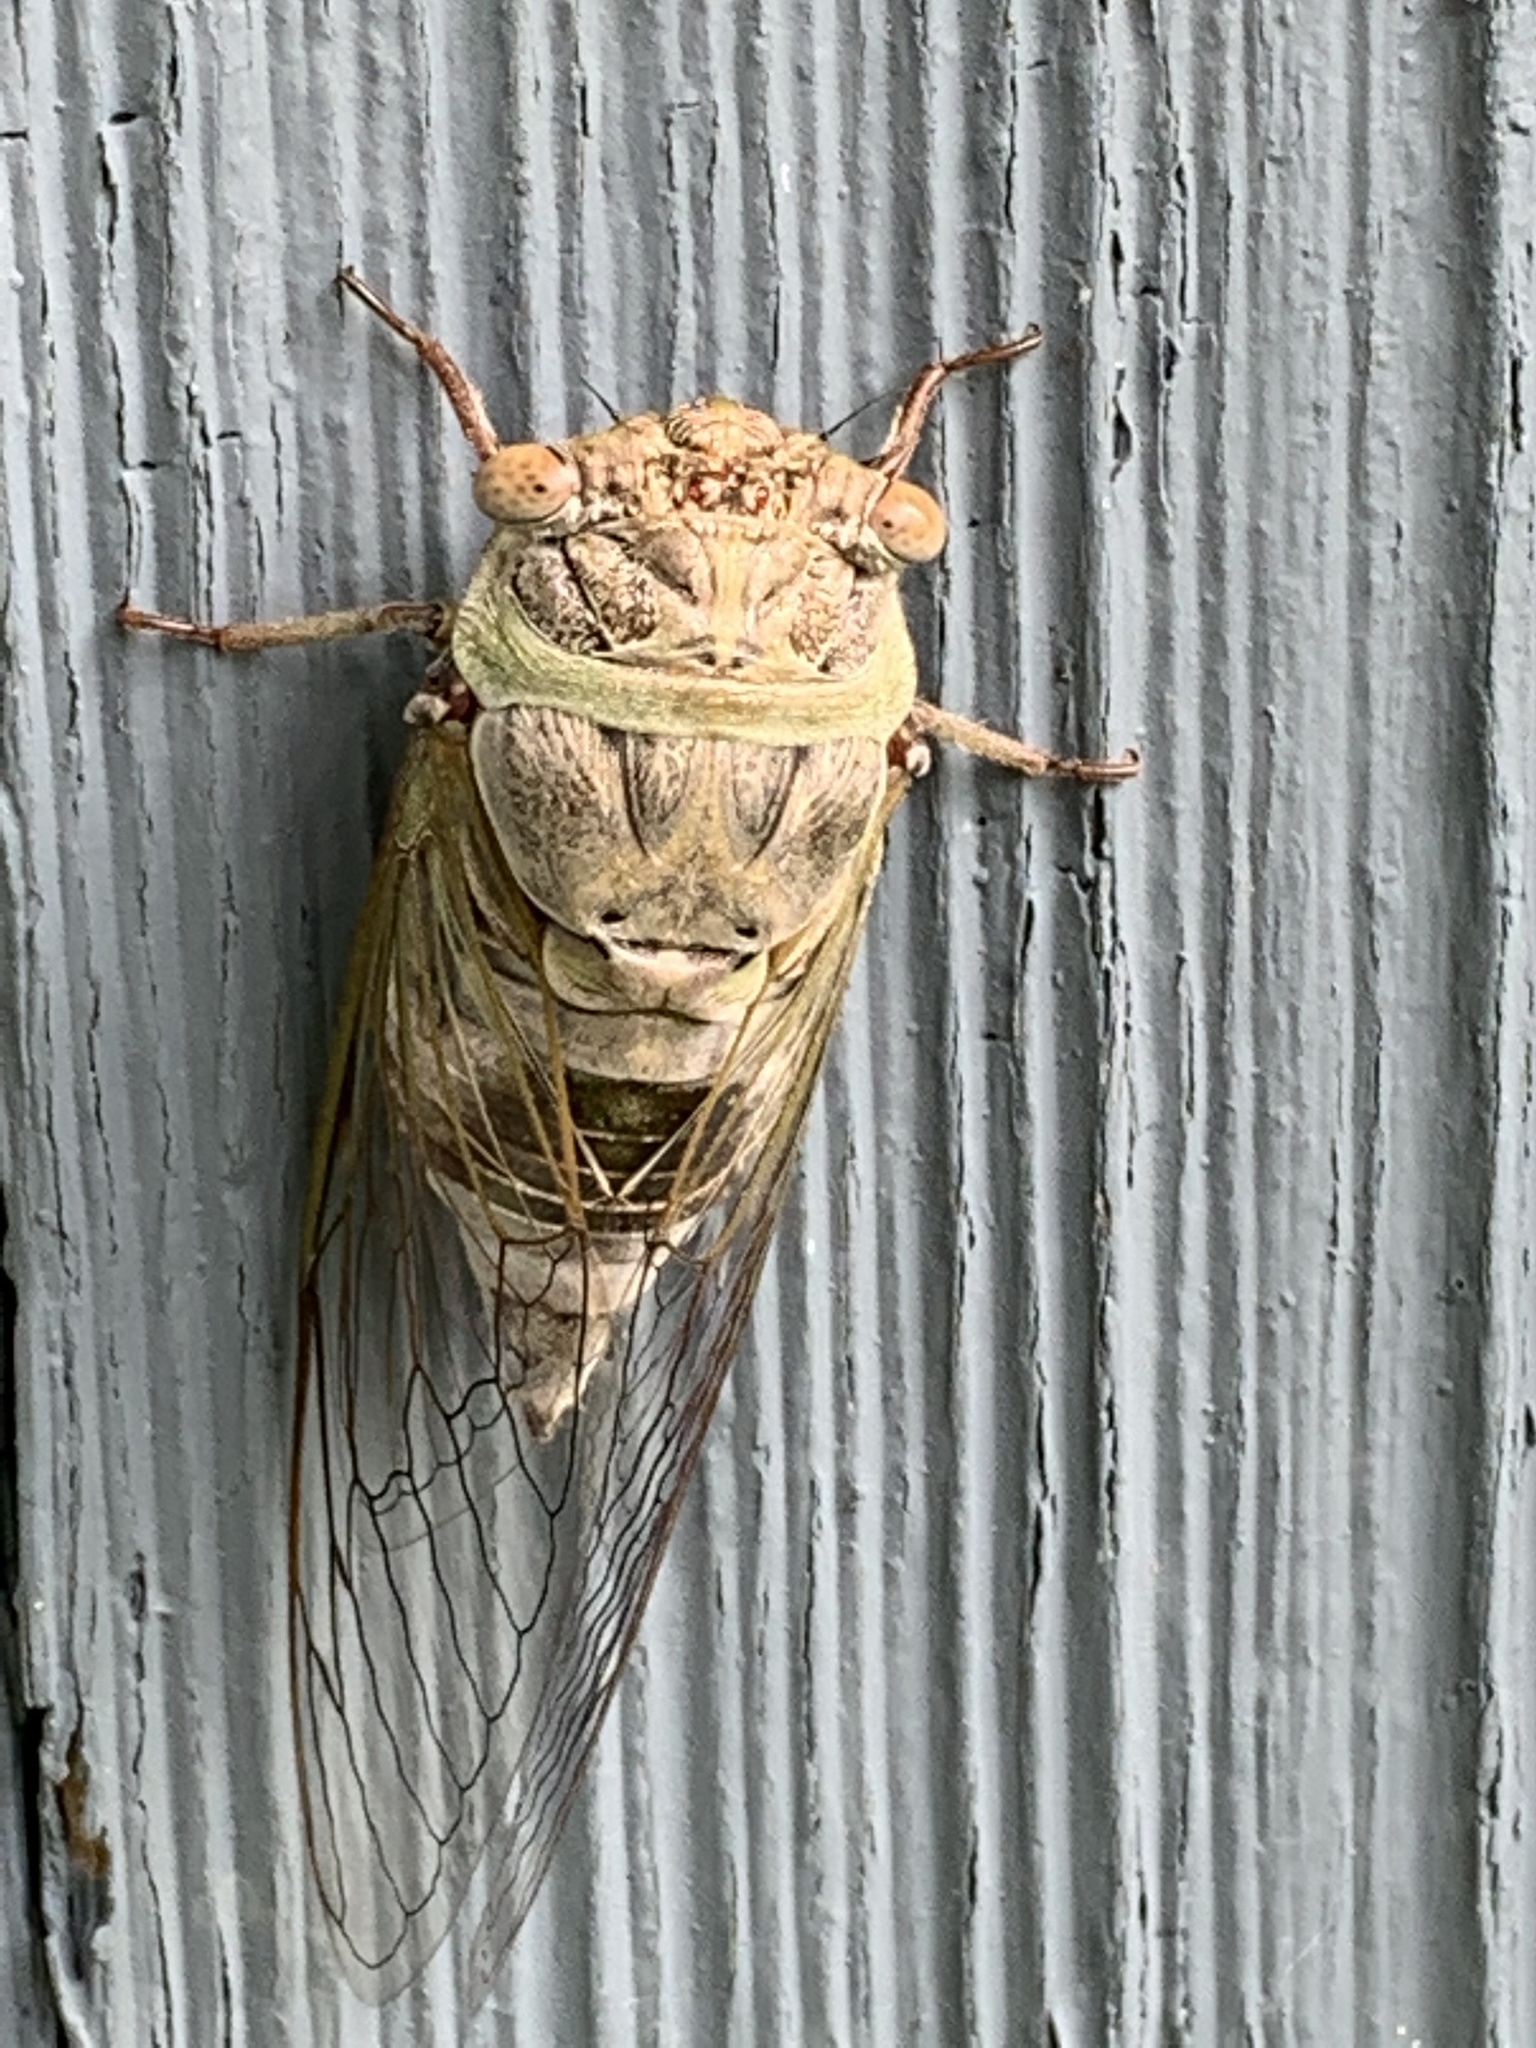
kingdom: Animalia
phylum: Arthropoda
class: Insecta
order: Hemiptera
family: Cicadidae
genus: Diceroprocta
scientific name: Diceroprocta grossa
